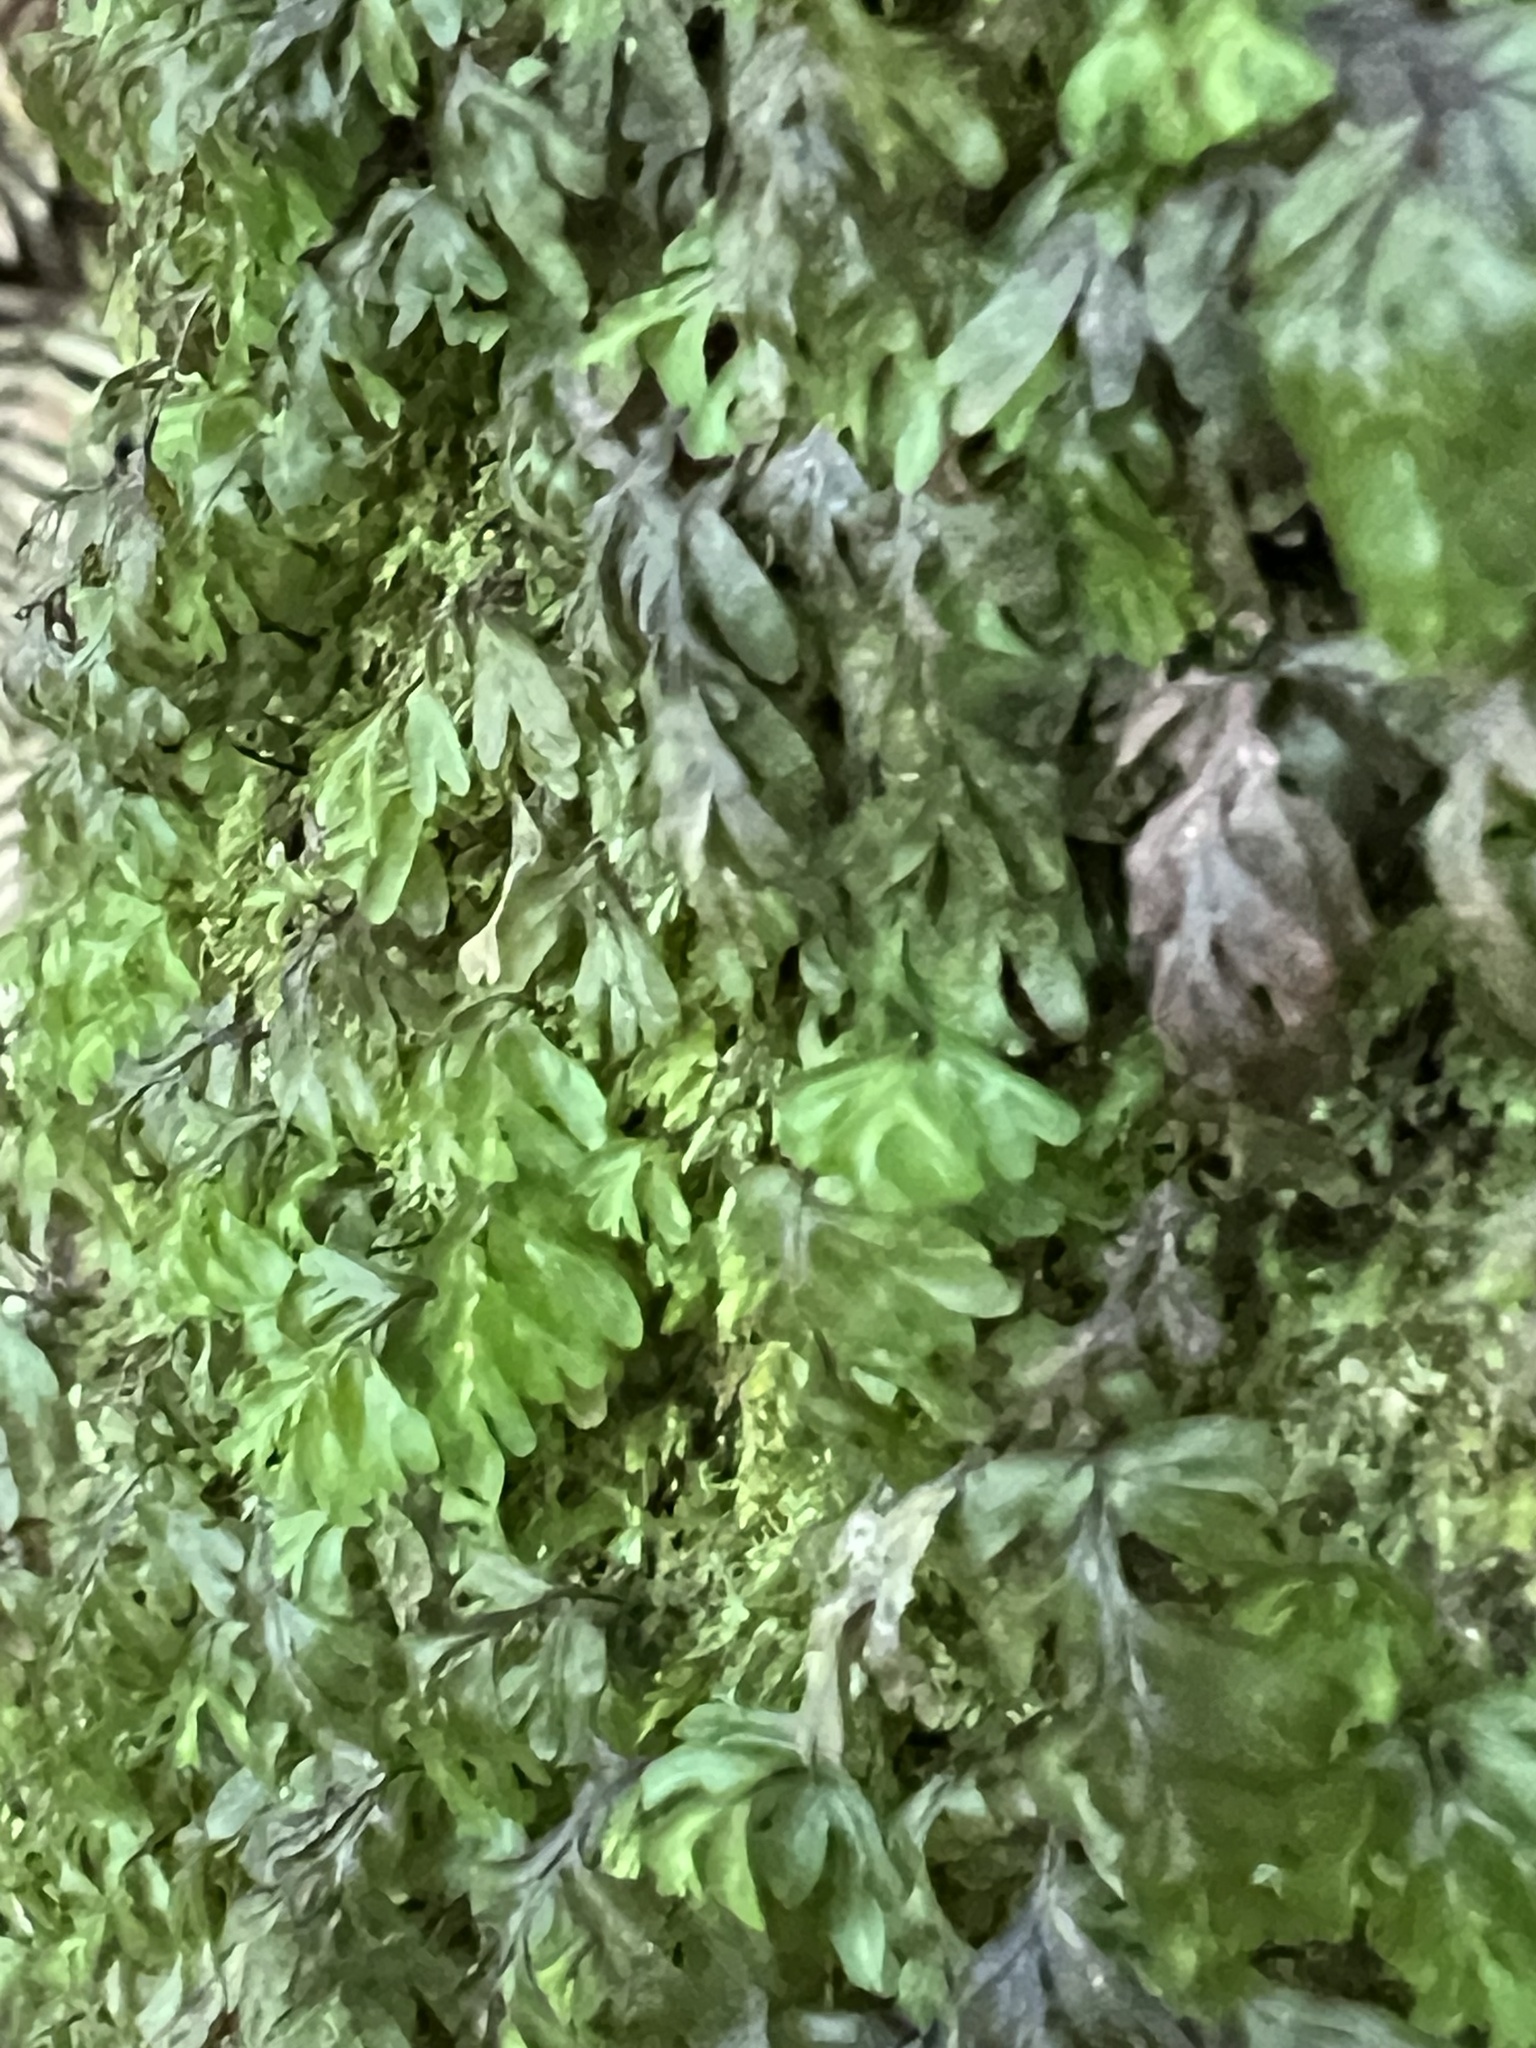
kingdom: Plantae
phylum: Tracheophyta
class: Polypodiopsida
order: Hymenophyllales
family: Hymenophyllaceae
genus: Hymenophyllum
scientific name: Hymenophyllum rarum
